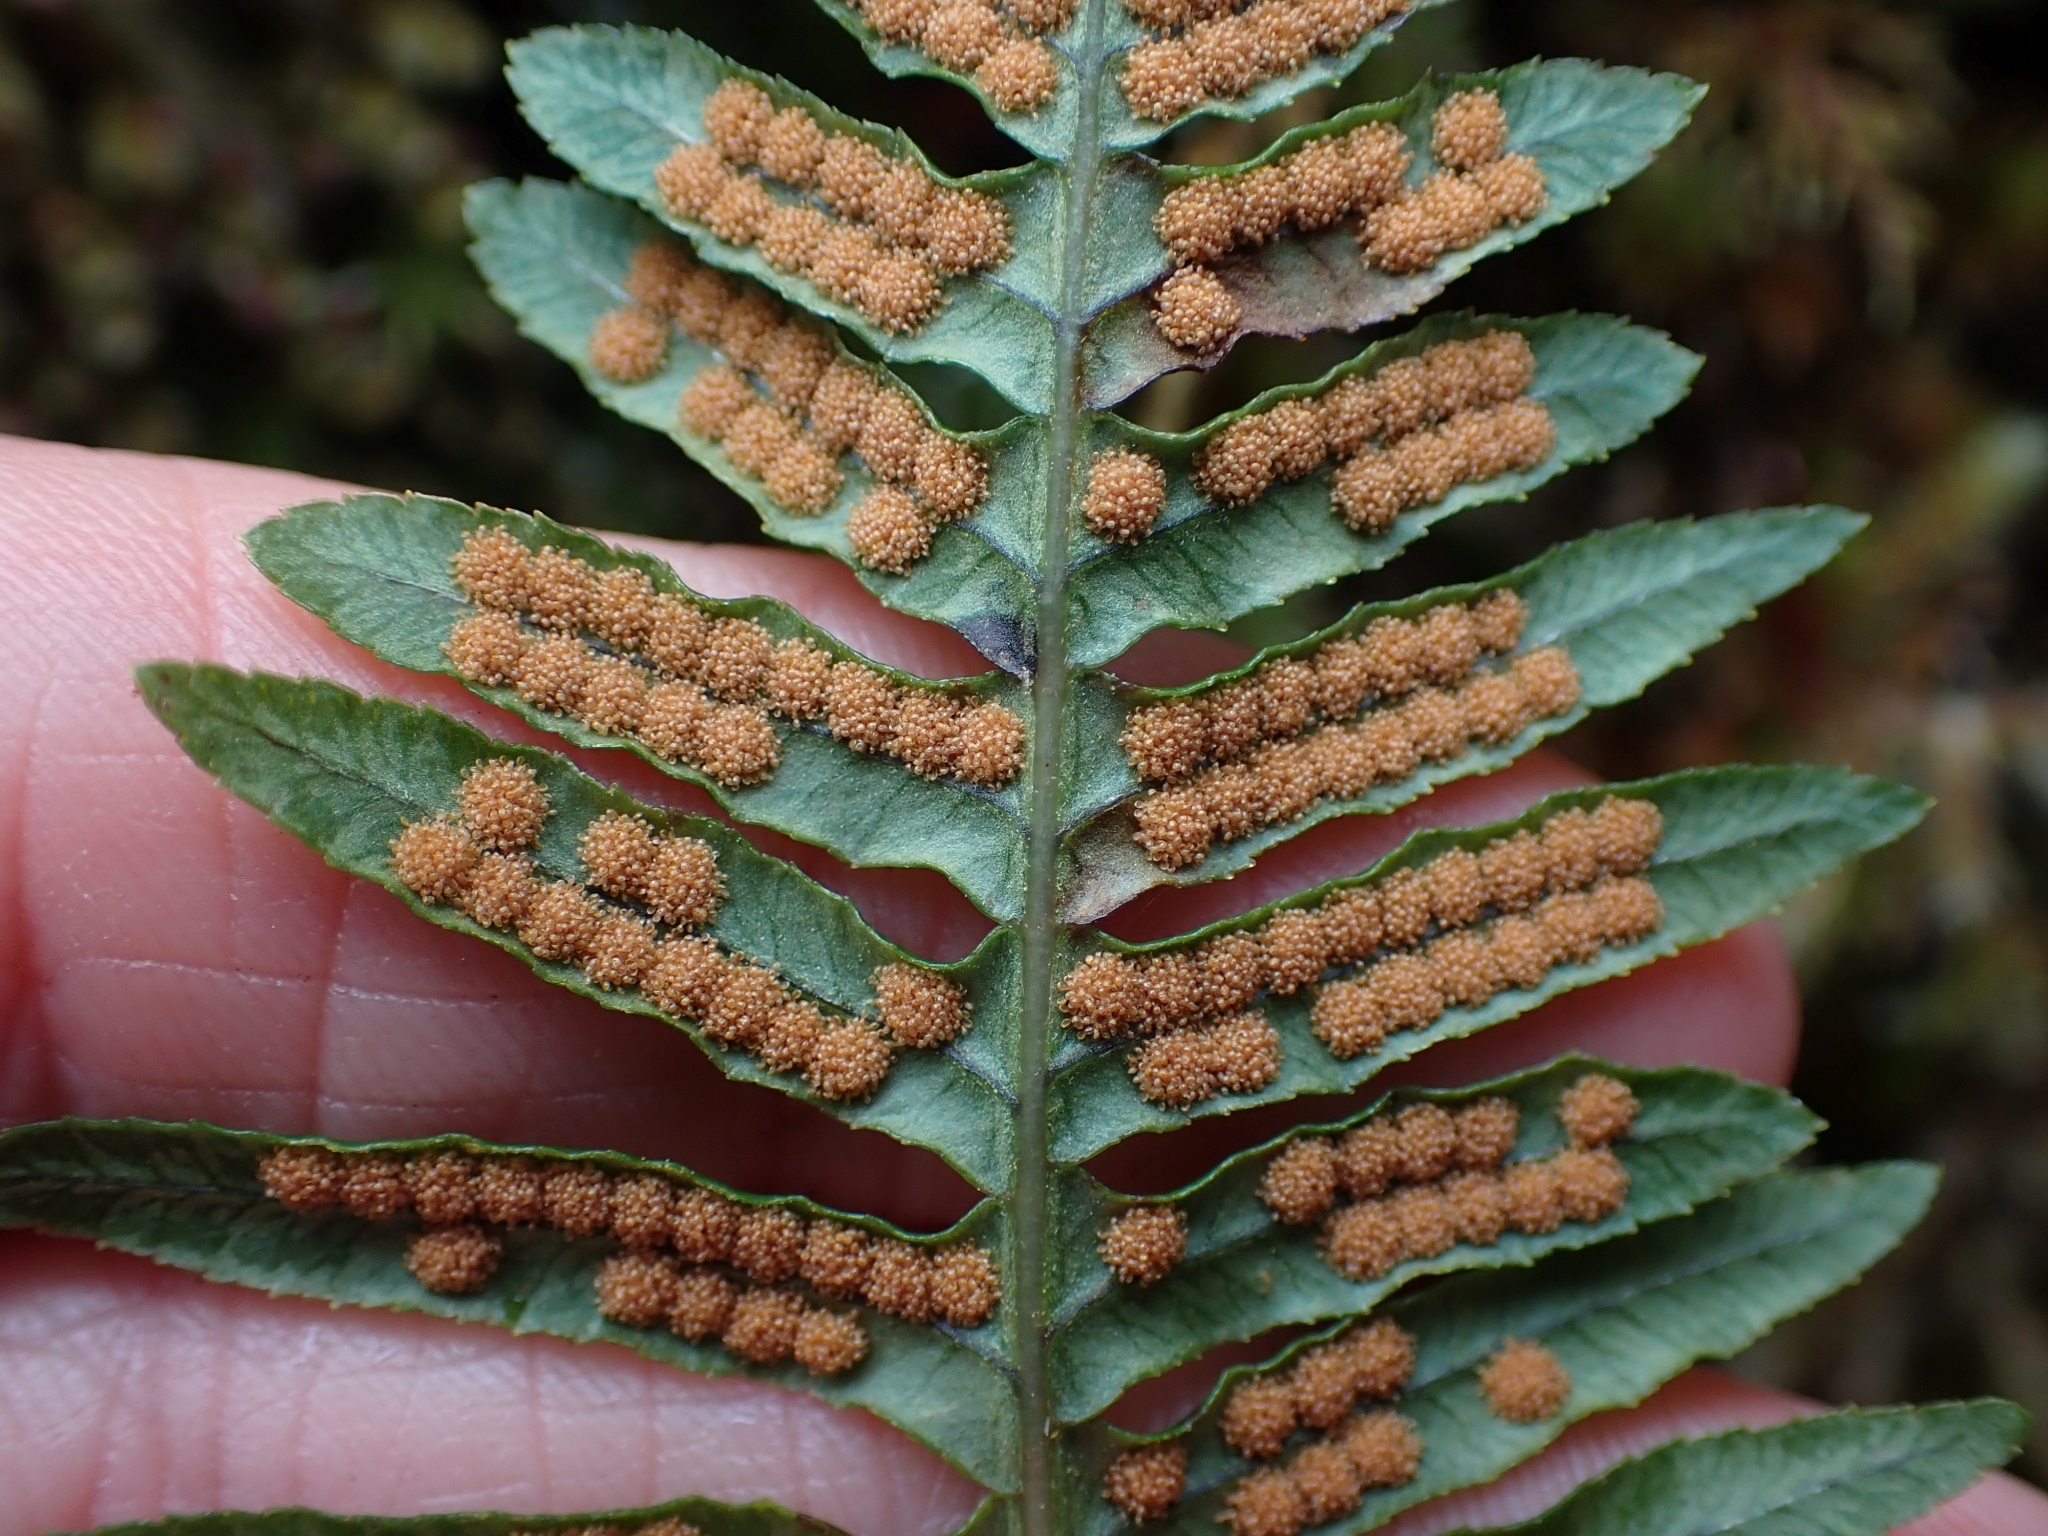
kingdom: Plantae
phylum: Tracheophyta
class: Polypodiopsida
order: Polypodiales
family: Polypodiaceae
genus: Polypodium
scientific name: Polypodium glycyrrhiza
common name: Licorice fern
